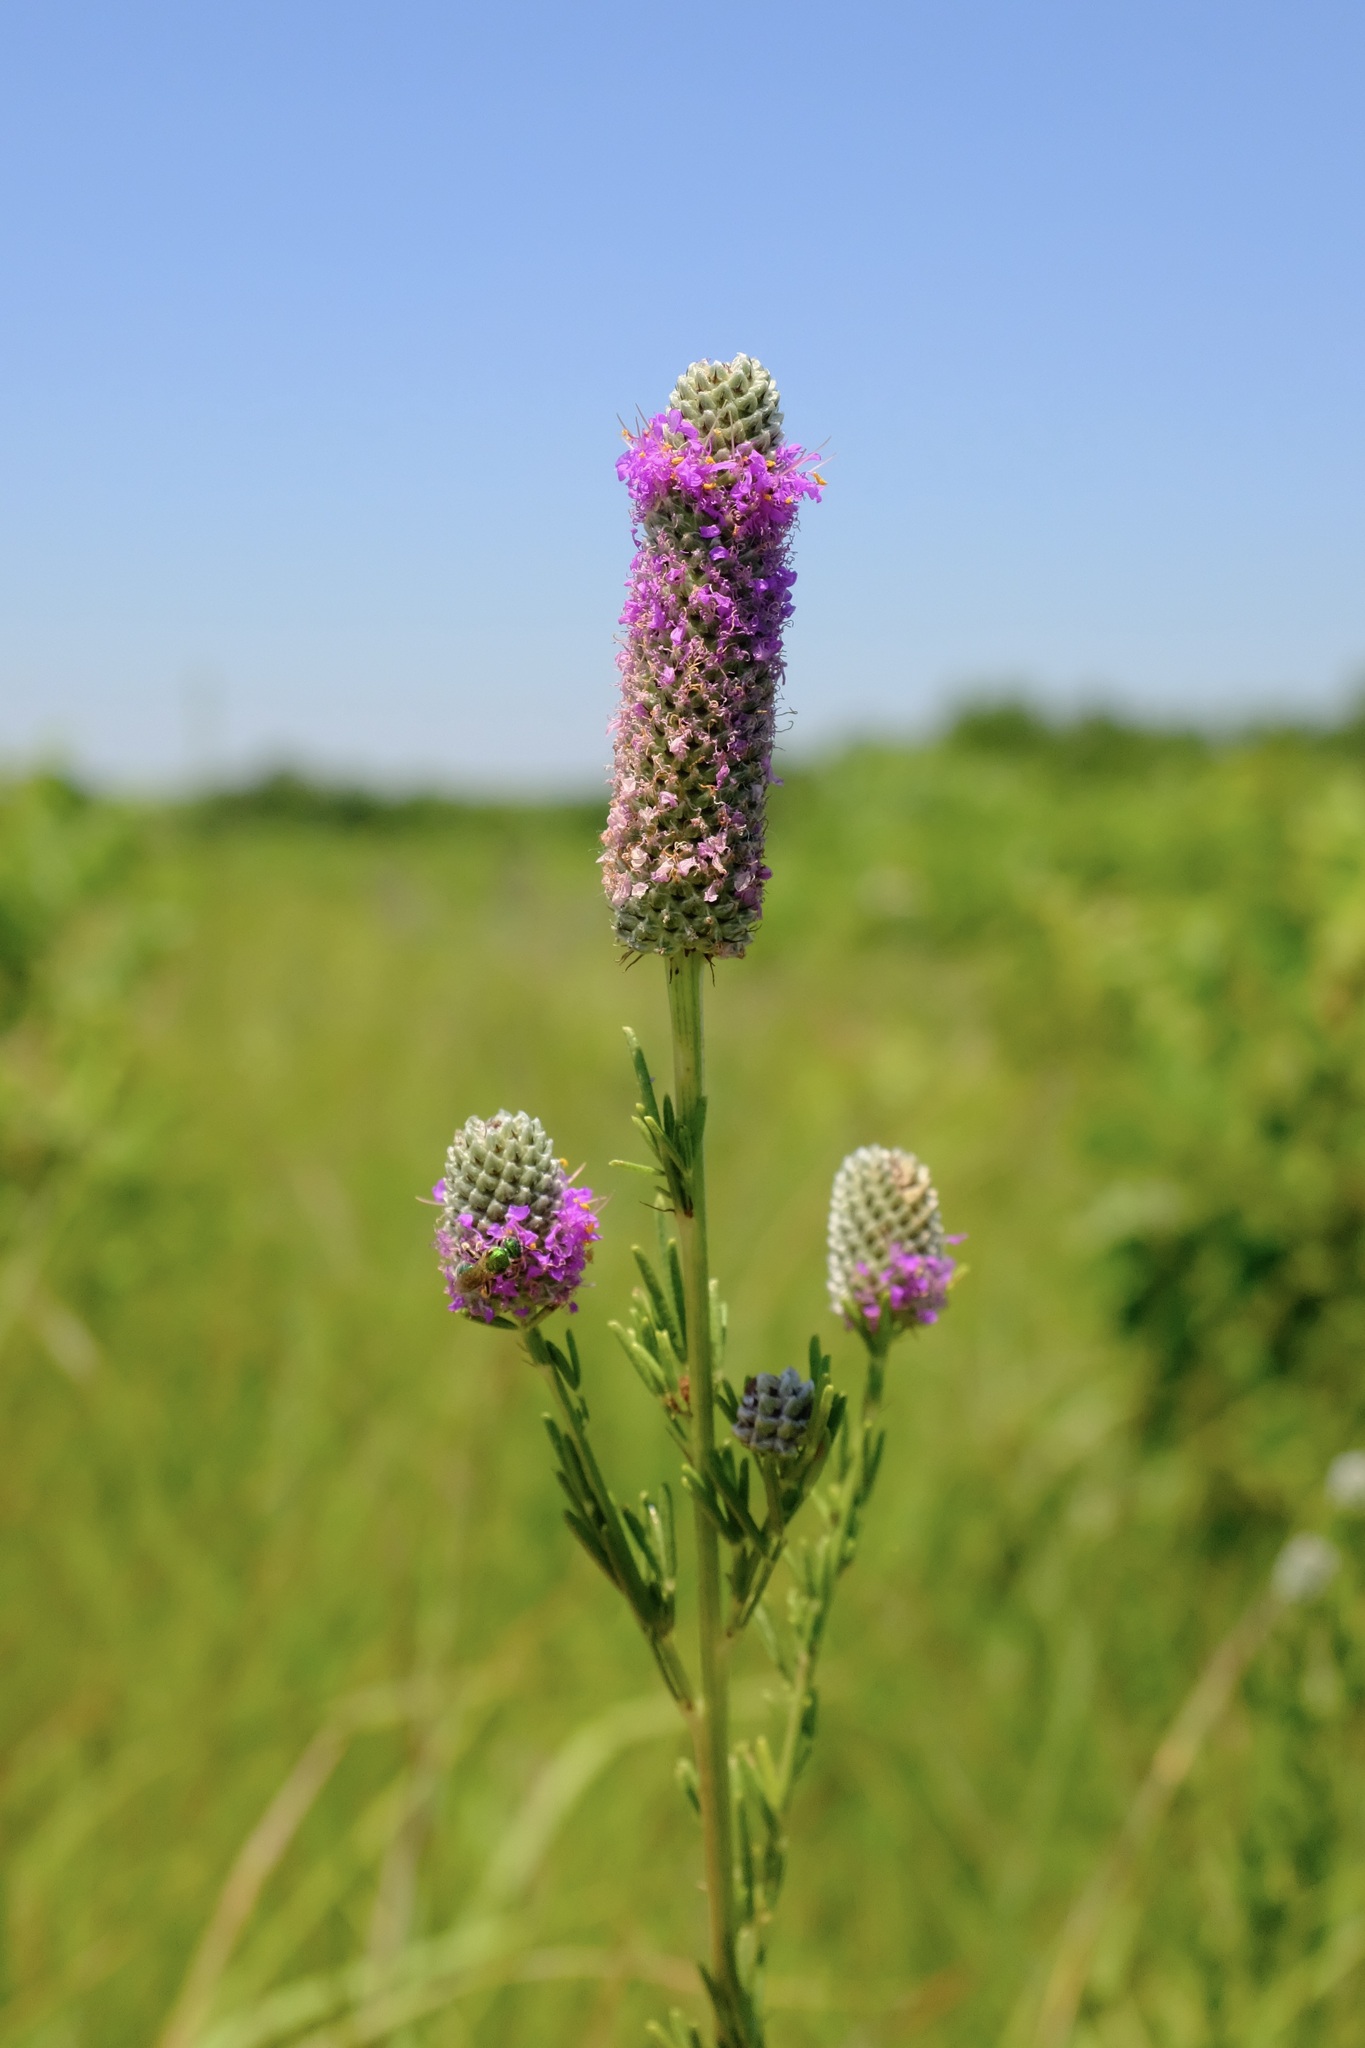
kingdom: Plantae
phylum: Tracheophyta
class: Magnoliopsida
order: Fabales
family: Fabaceae
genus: Dalea
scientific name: Dalea purpurea
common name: Purple prairie-clover
